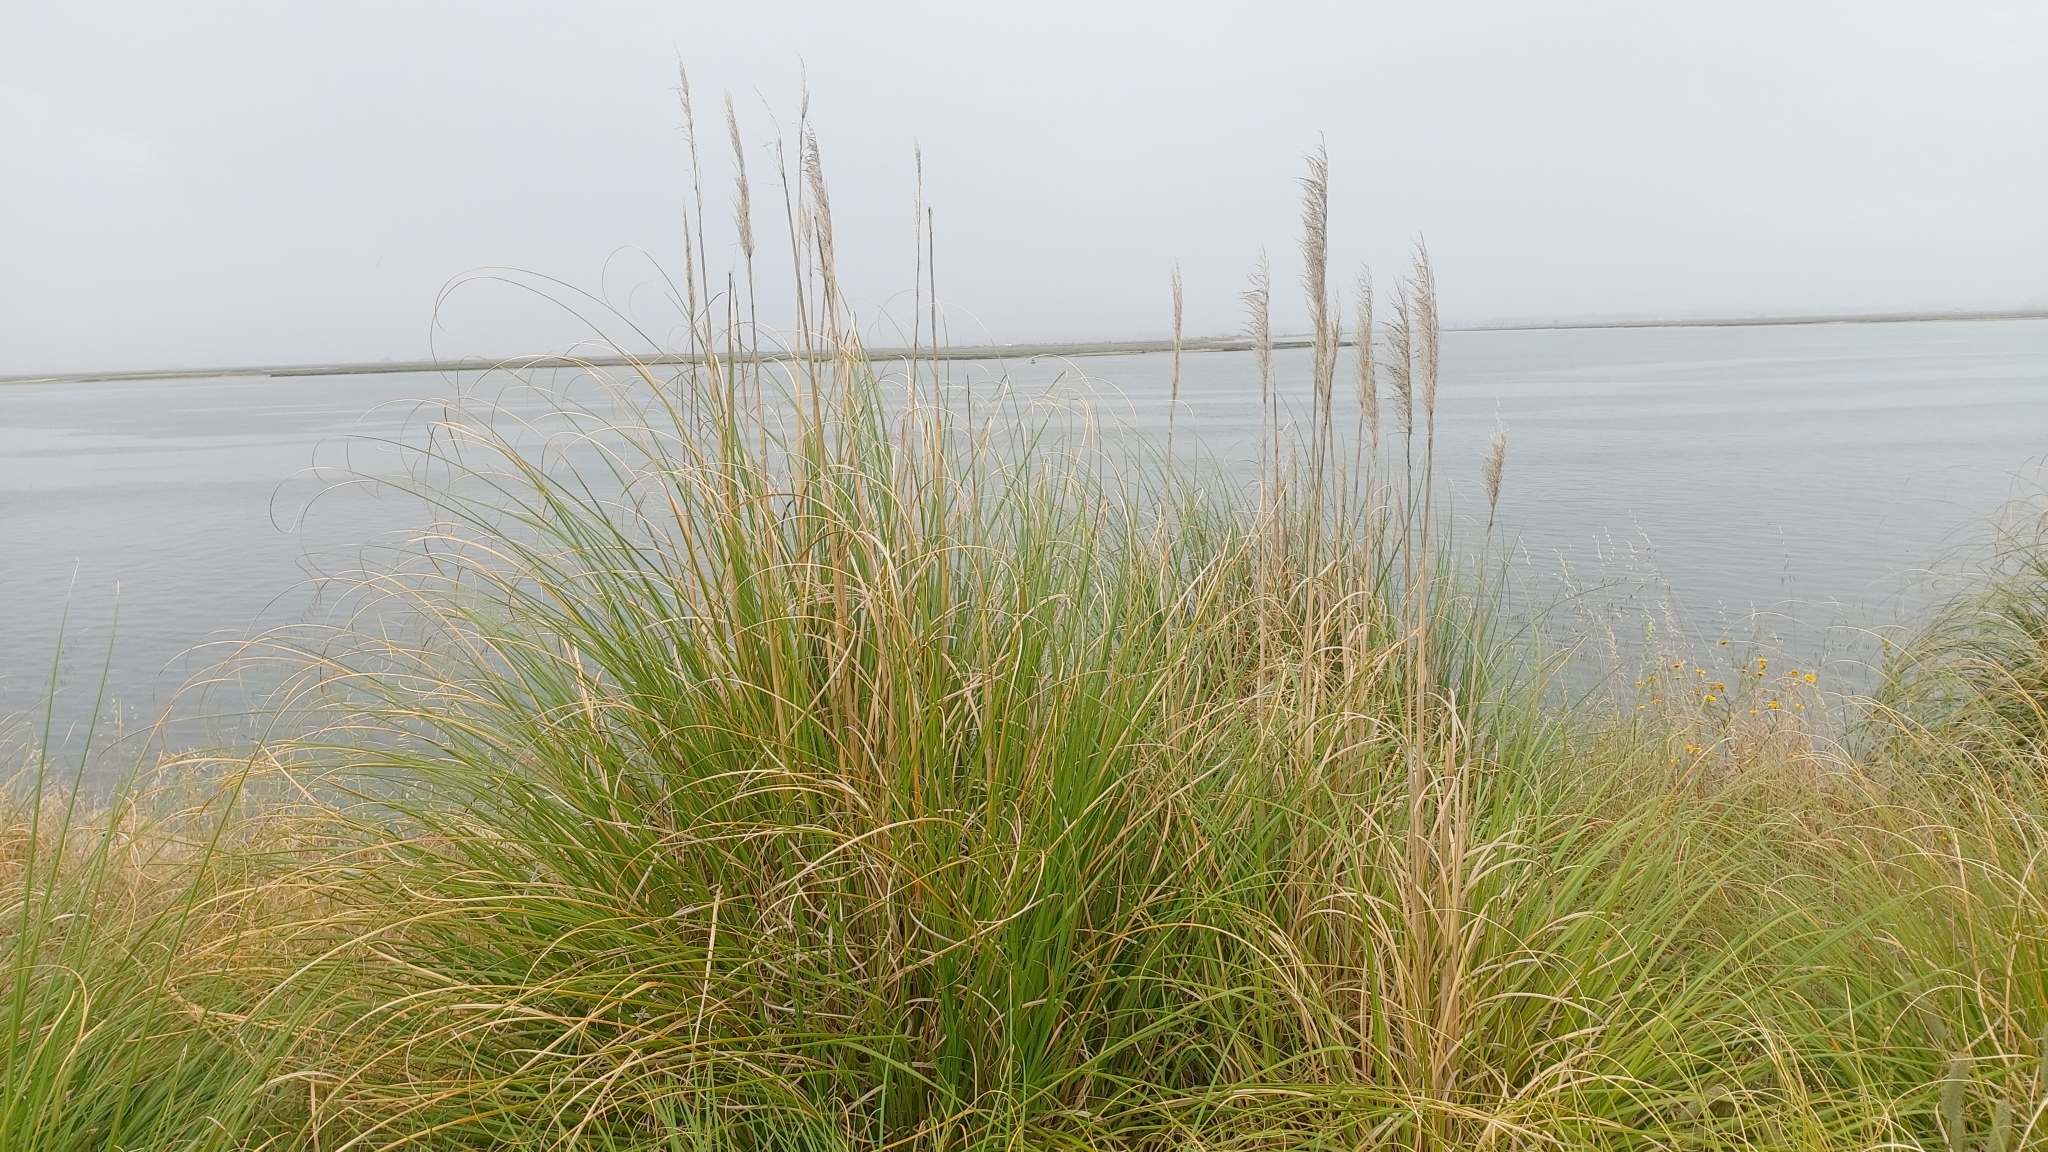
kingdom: Plantae
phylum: Tracheophyta
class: Liliopsida
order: Poales
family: Poaceae
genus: Cortaderia
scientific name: Cortaderia selloana
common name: Uruguayan pampas grass
